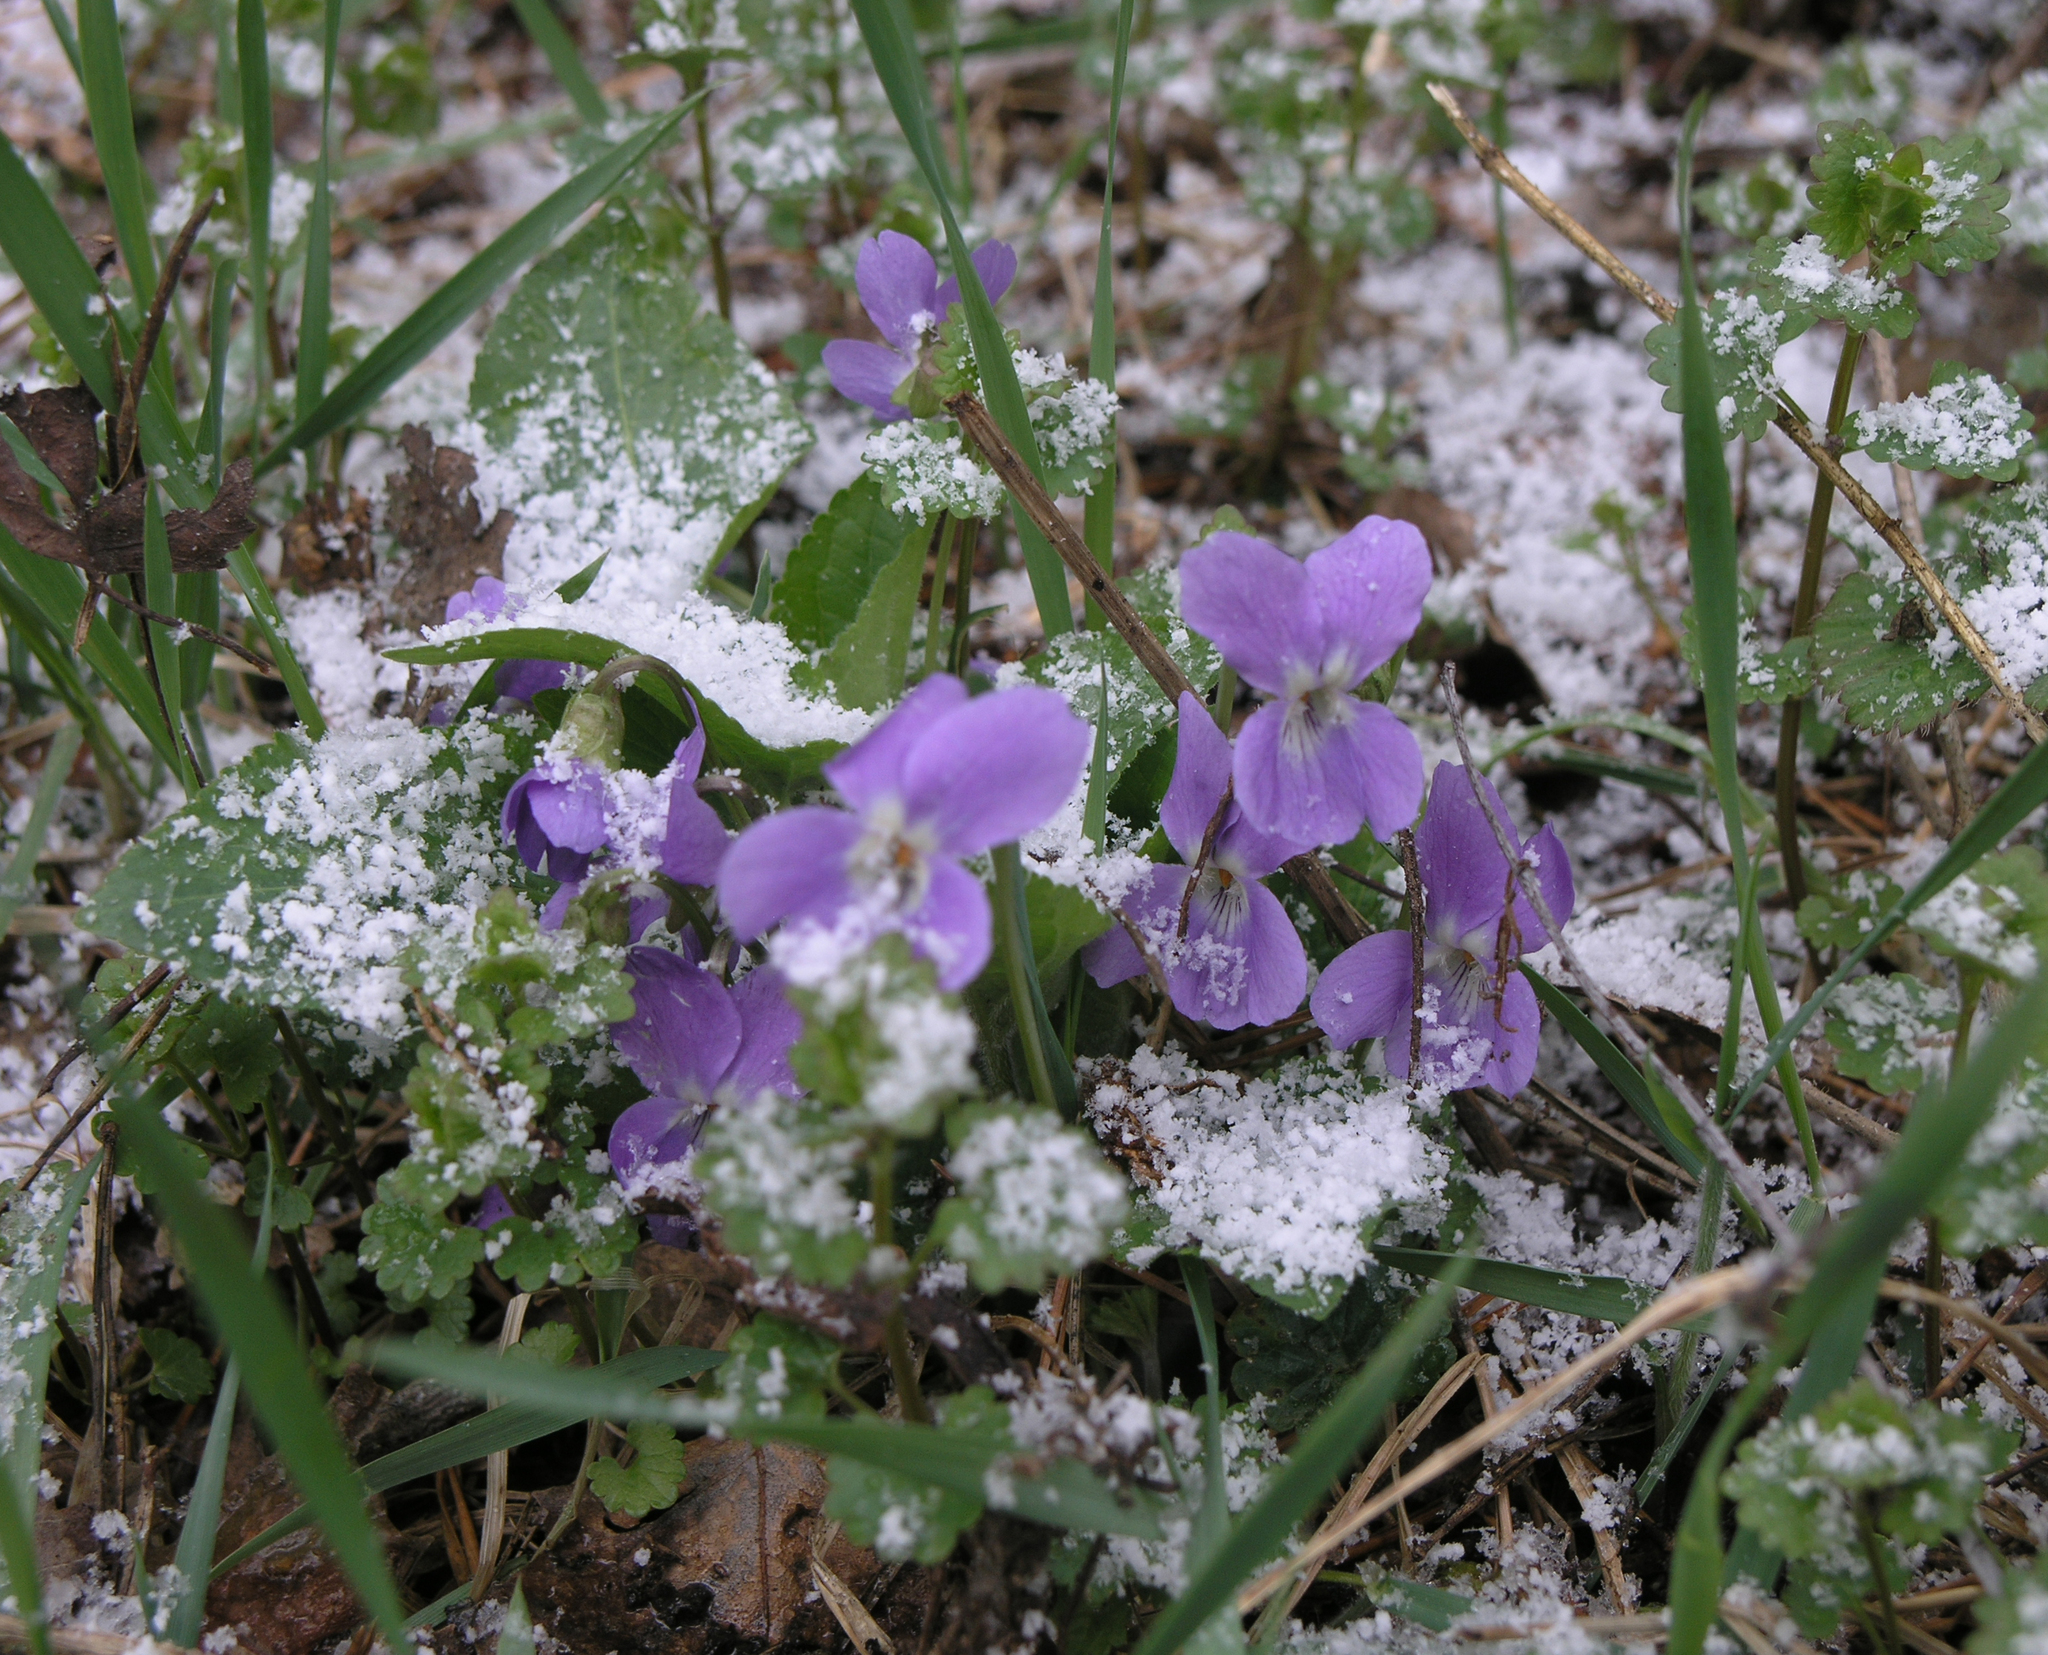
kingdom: Plantae
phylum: Tracheophyta
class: Magnoliopsida
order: Malpighiales
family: Violaceae
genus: Viola
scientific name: Viola hirta
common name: Hairy violet
